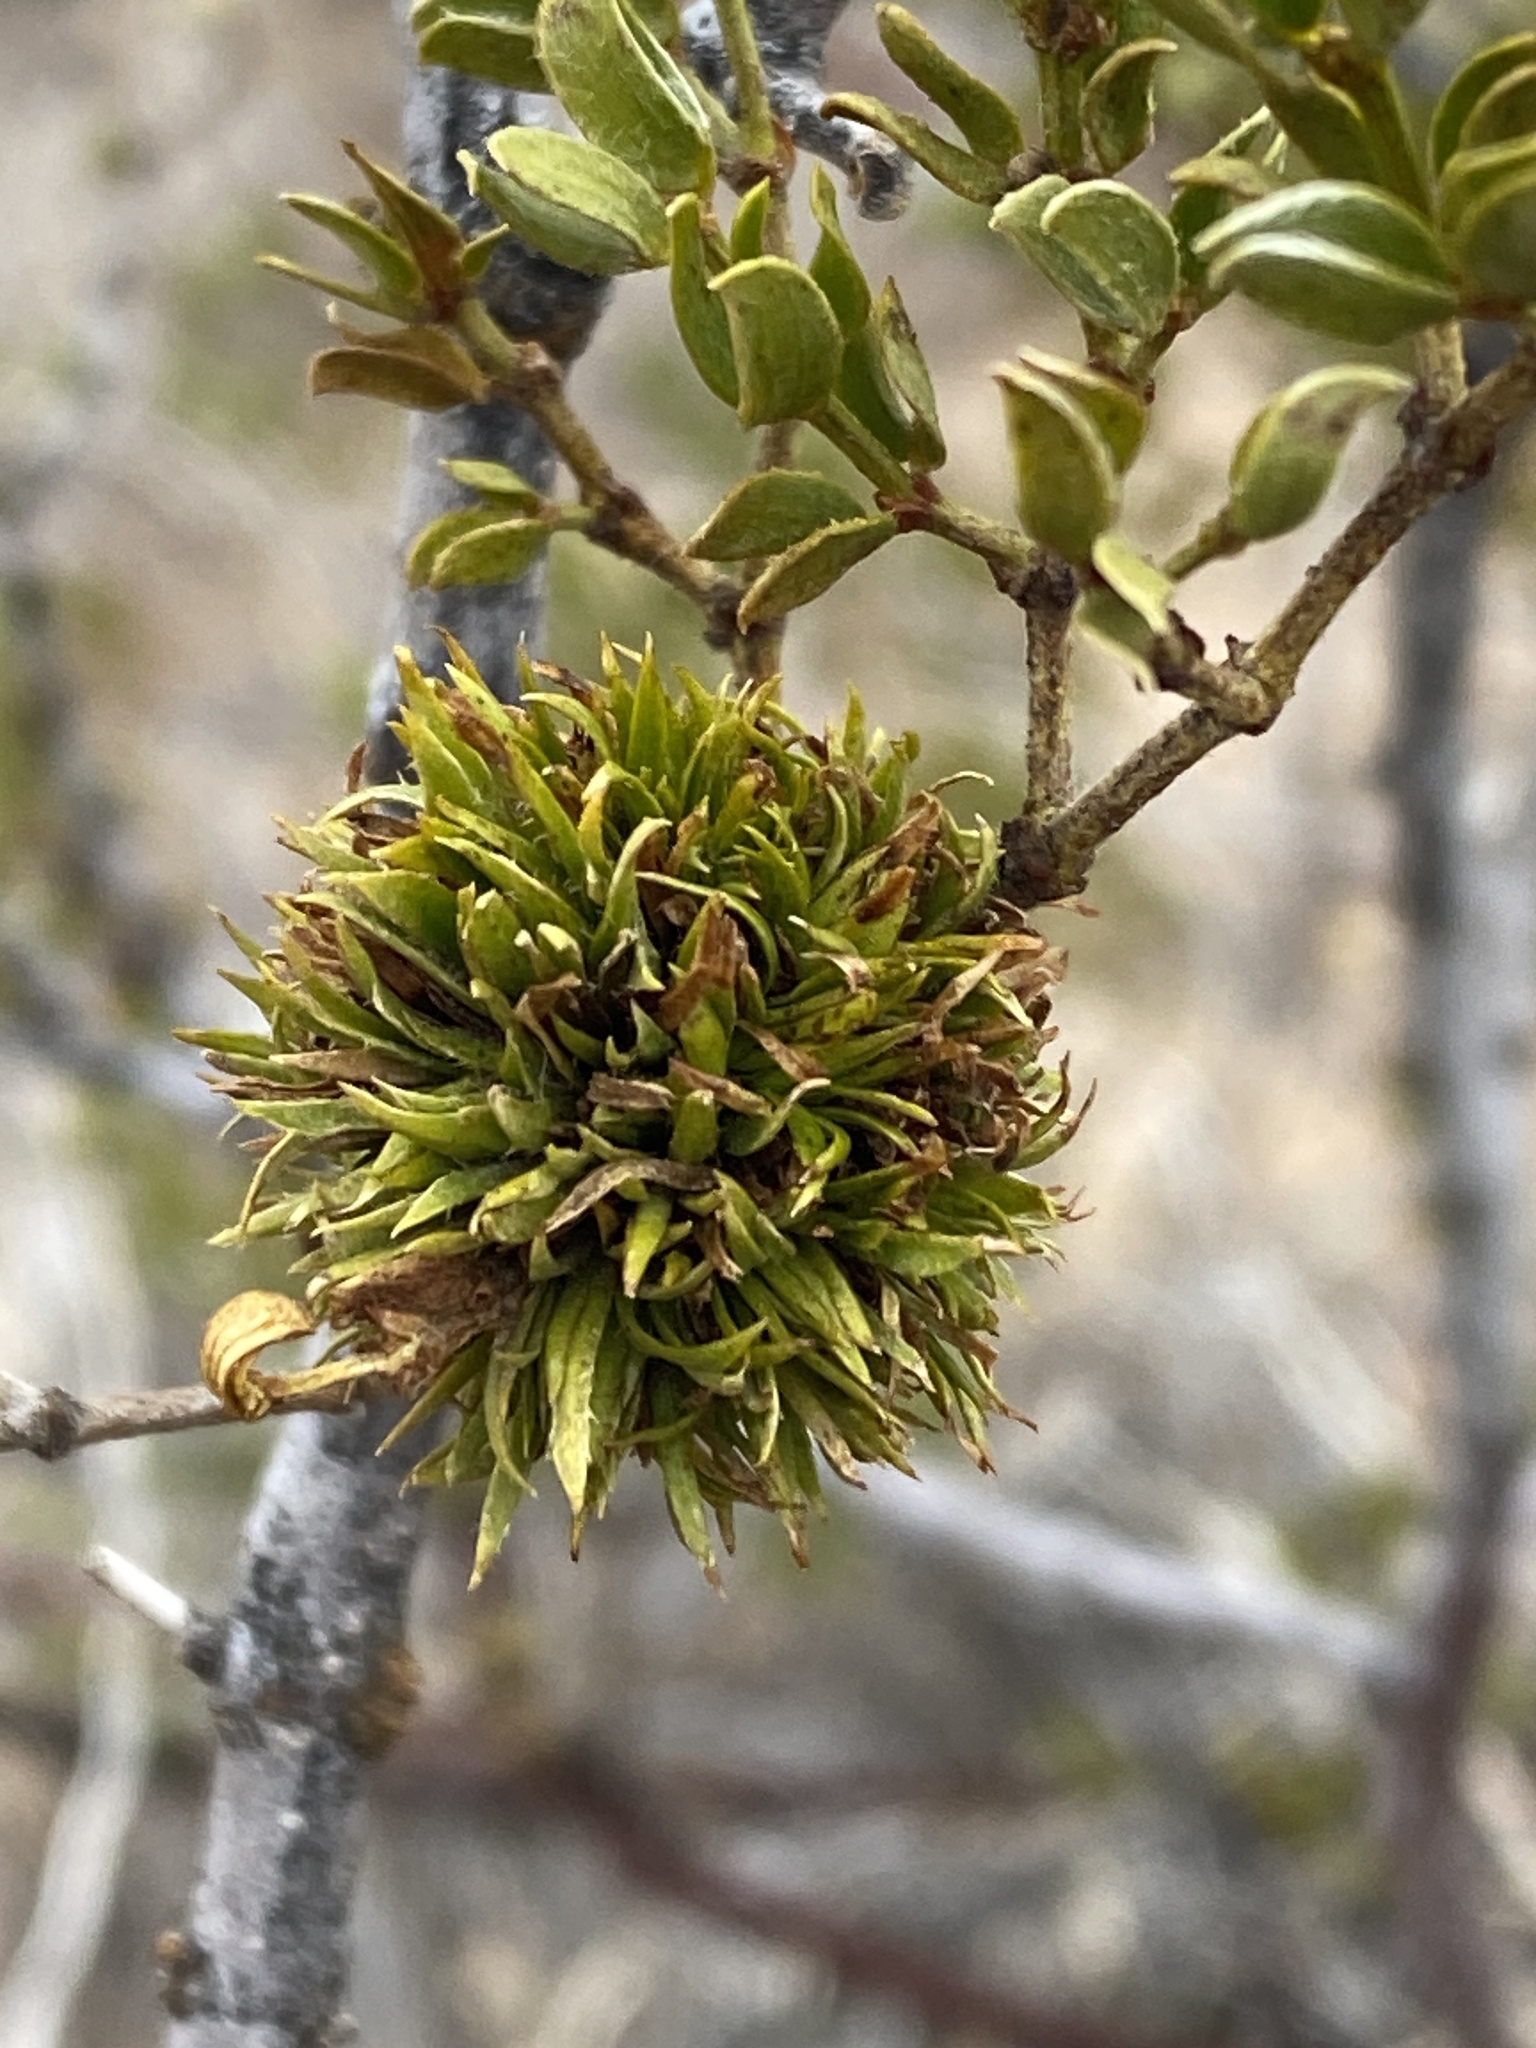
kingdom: Animalia
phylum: Arthropoda
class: Insecta
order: Diptera
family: Cecidomyiidae
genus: Asphondylia
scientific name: Asphondylia auripila
